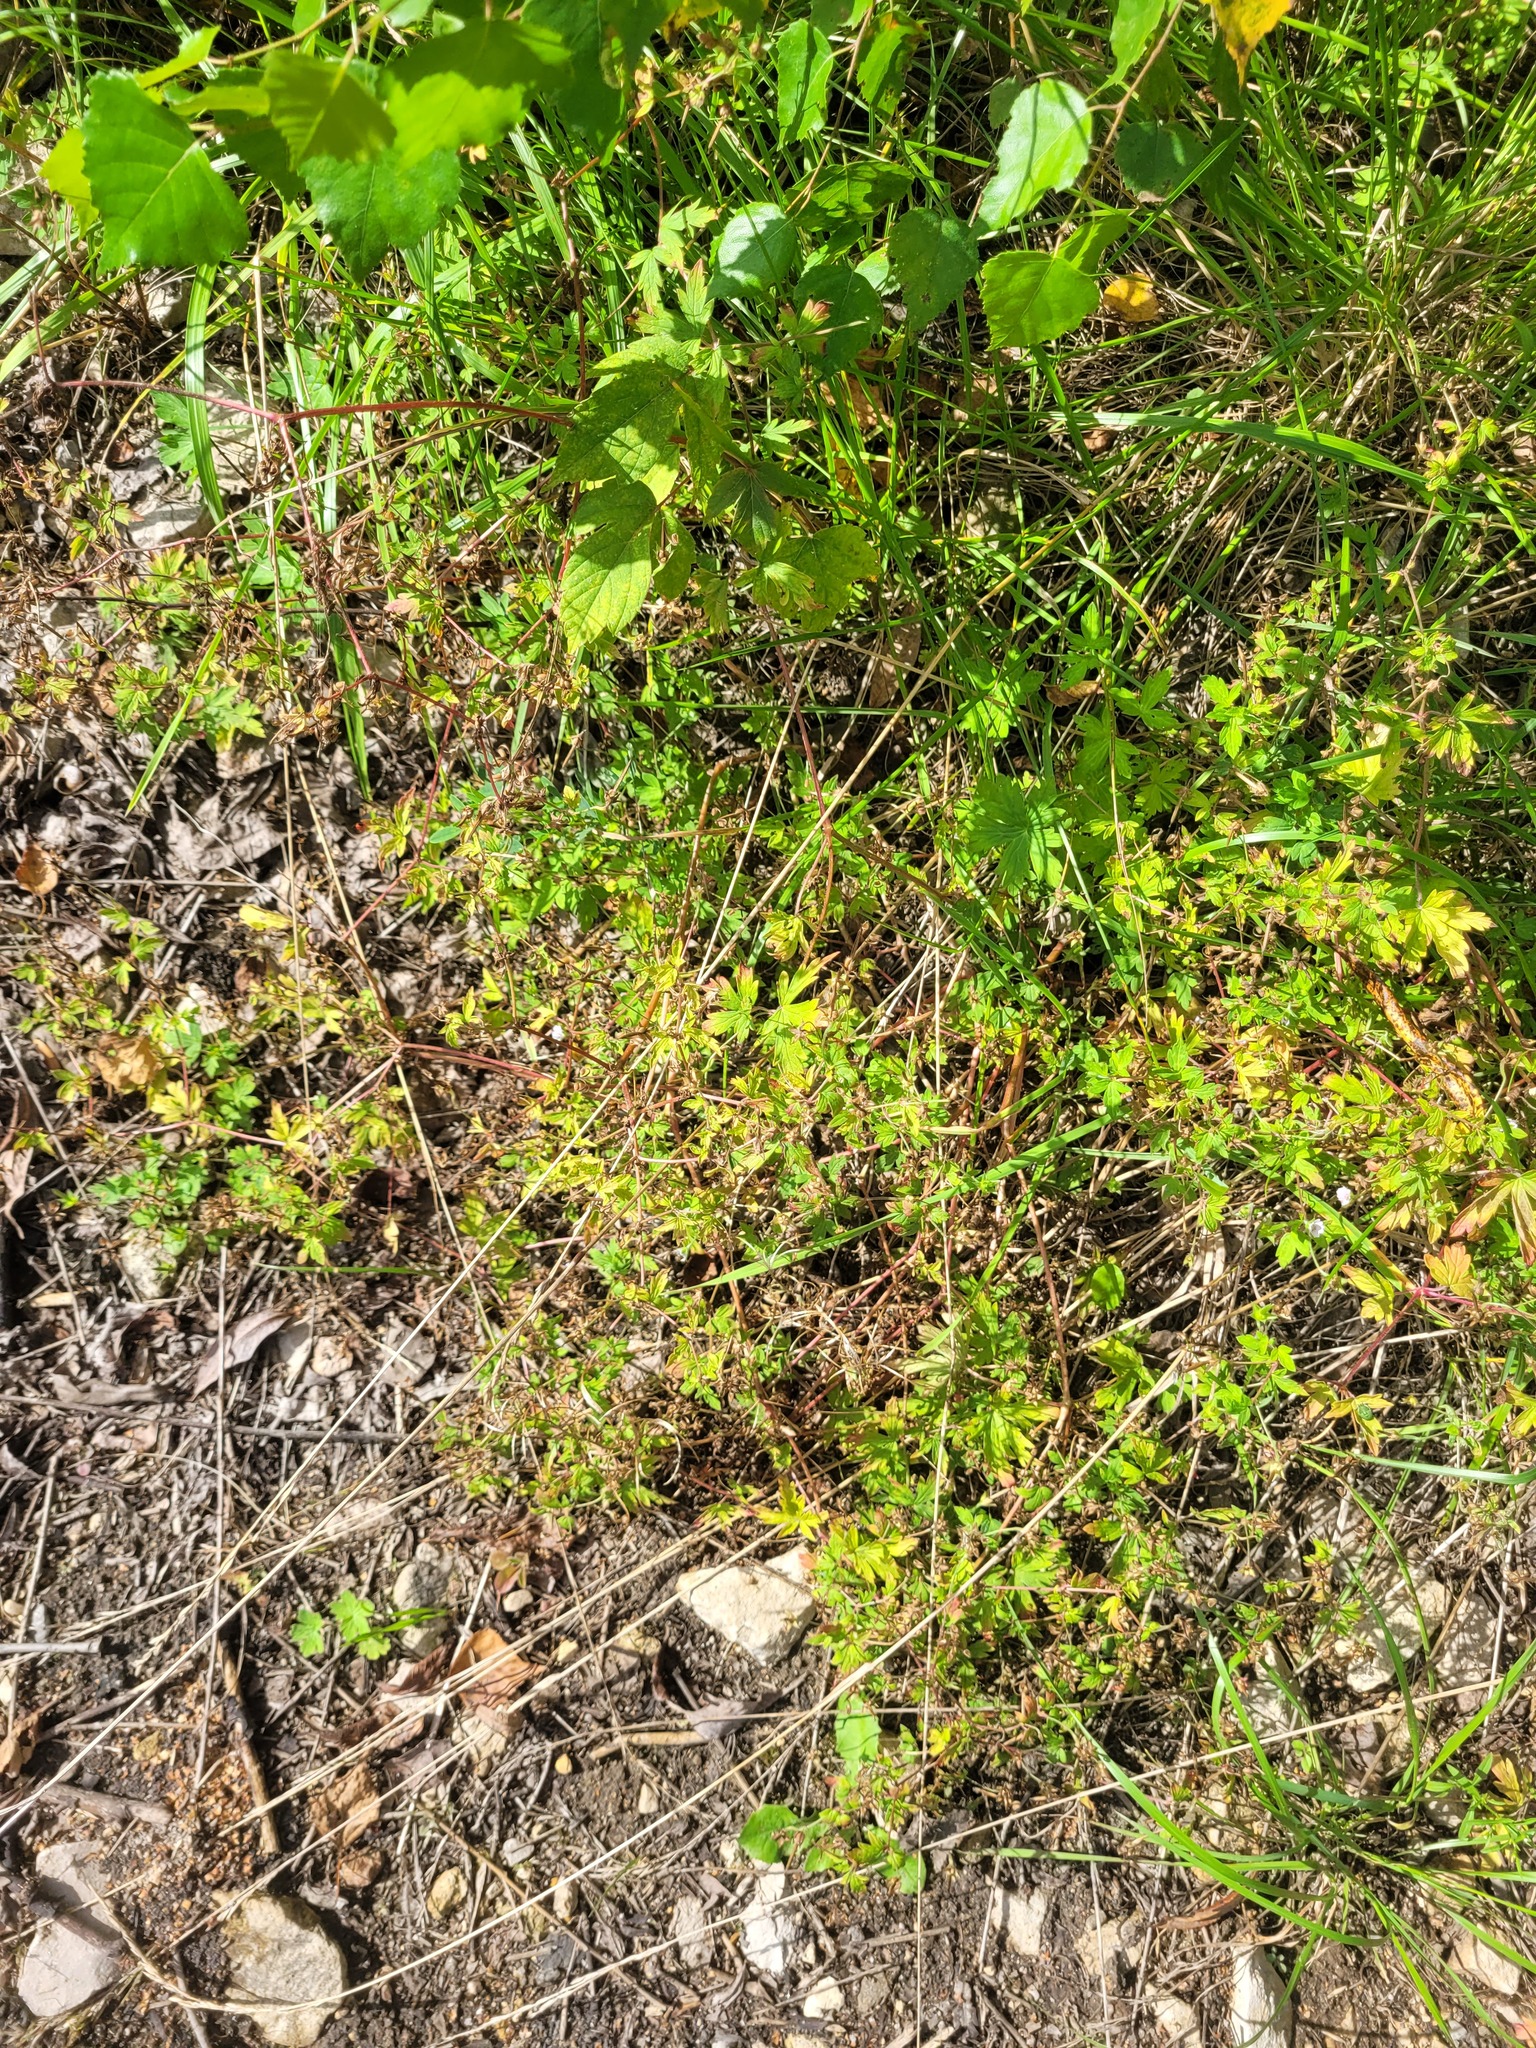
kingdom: Plantae
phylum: Tracheophyta
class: Magnoliopsida
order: Geraniales
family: Geraniaceae
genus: Geranium
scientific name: Geranium sibiricum
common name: Siberian crane's-bill
